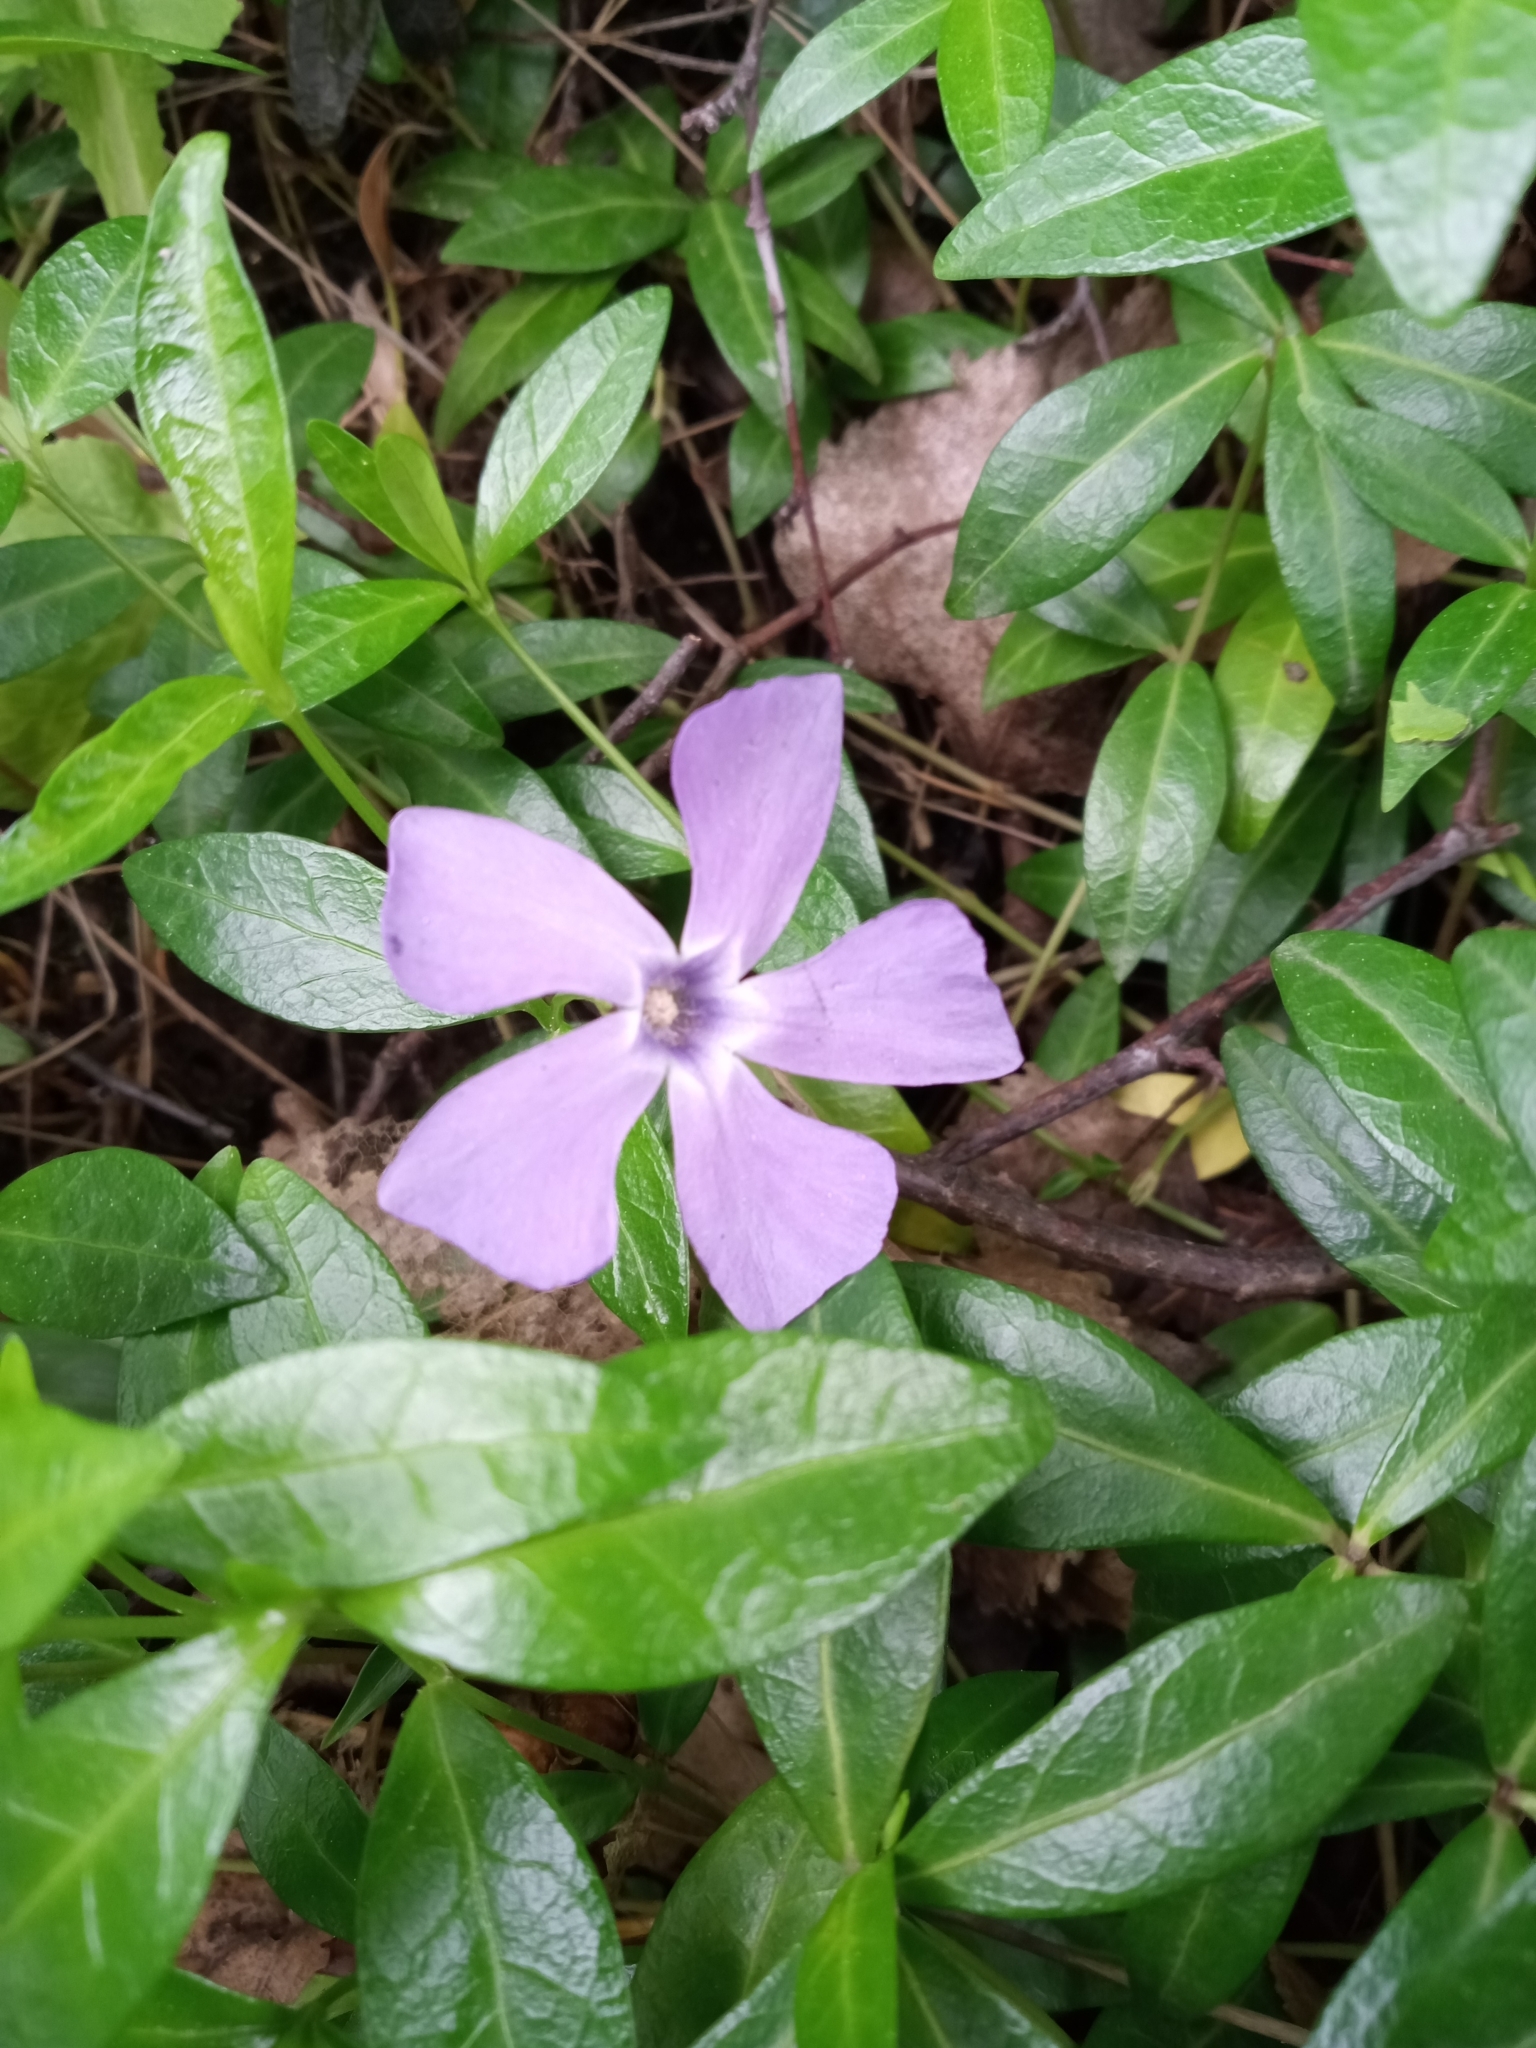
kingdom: Plantae
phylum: Tracheophyta
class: Magnoliopsida
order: Gentianales
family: Apocynaceae
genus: Vinca
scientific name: Vinca minor
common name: Lesser periwinkle
